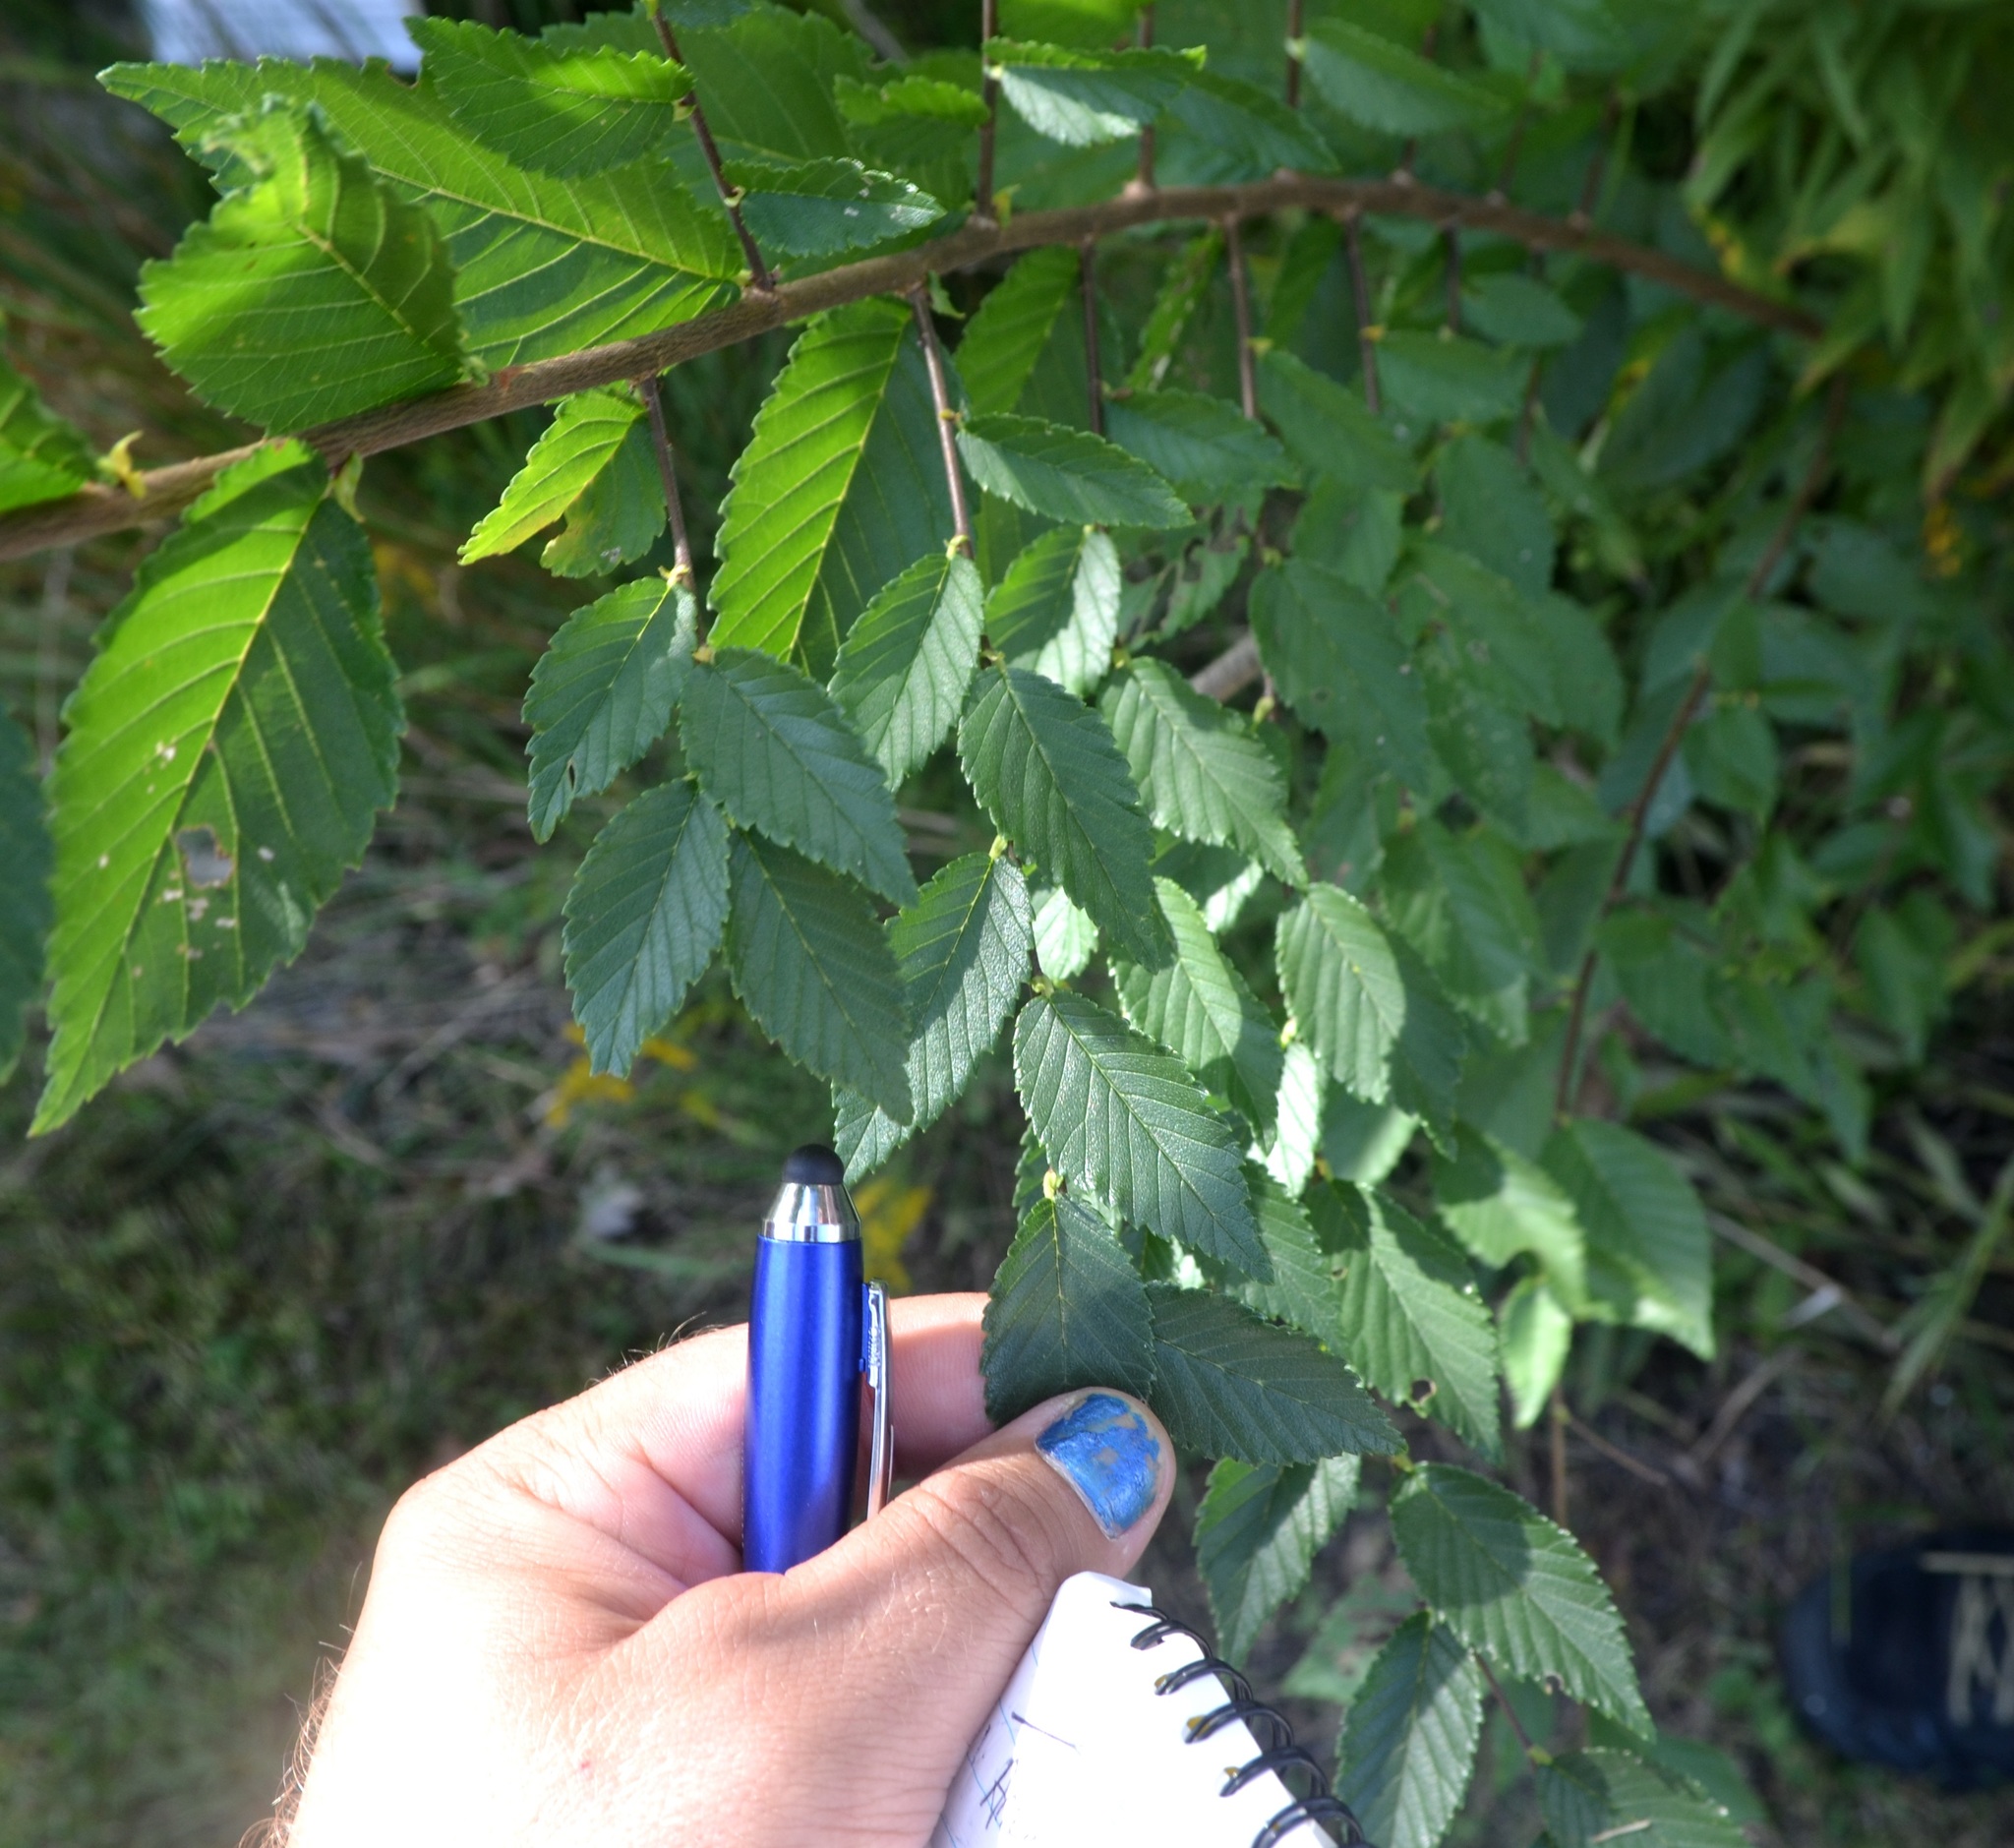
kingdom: Plantae
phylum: Tracheophyta
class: Magnoliopsida
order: Rosales
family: Ulmaceae
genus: Ulmus
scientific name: Ulmus pumila
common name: Siberian elm
